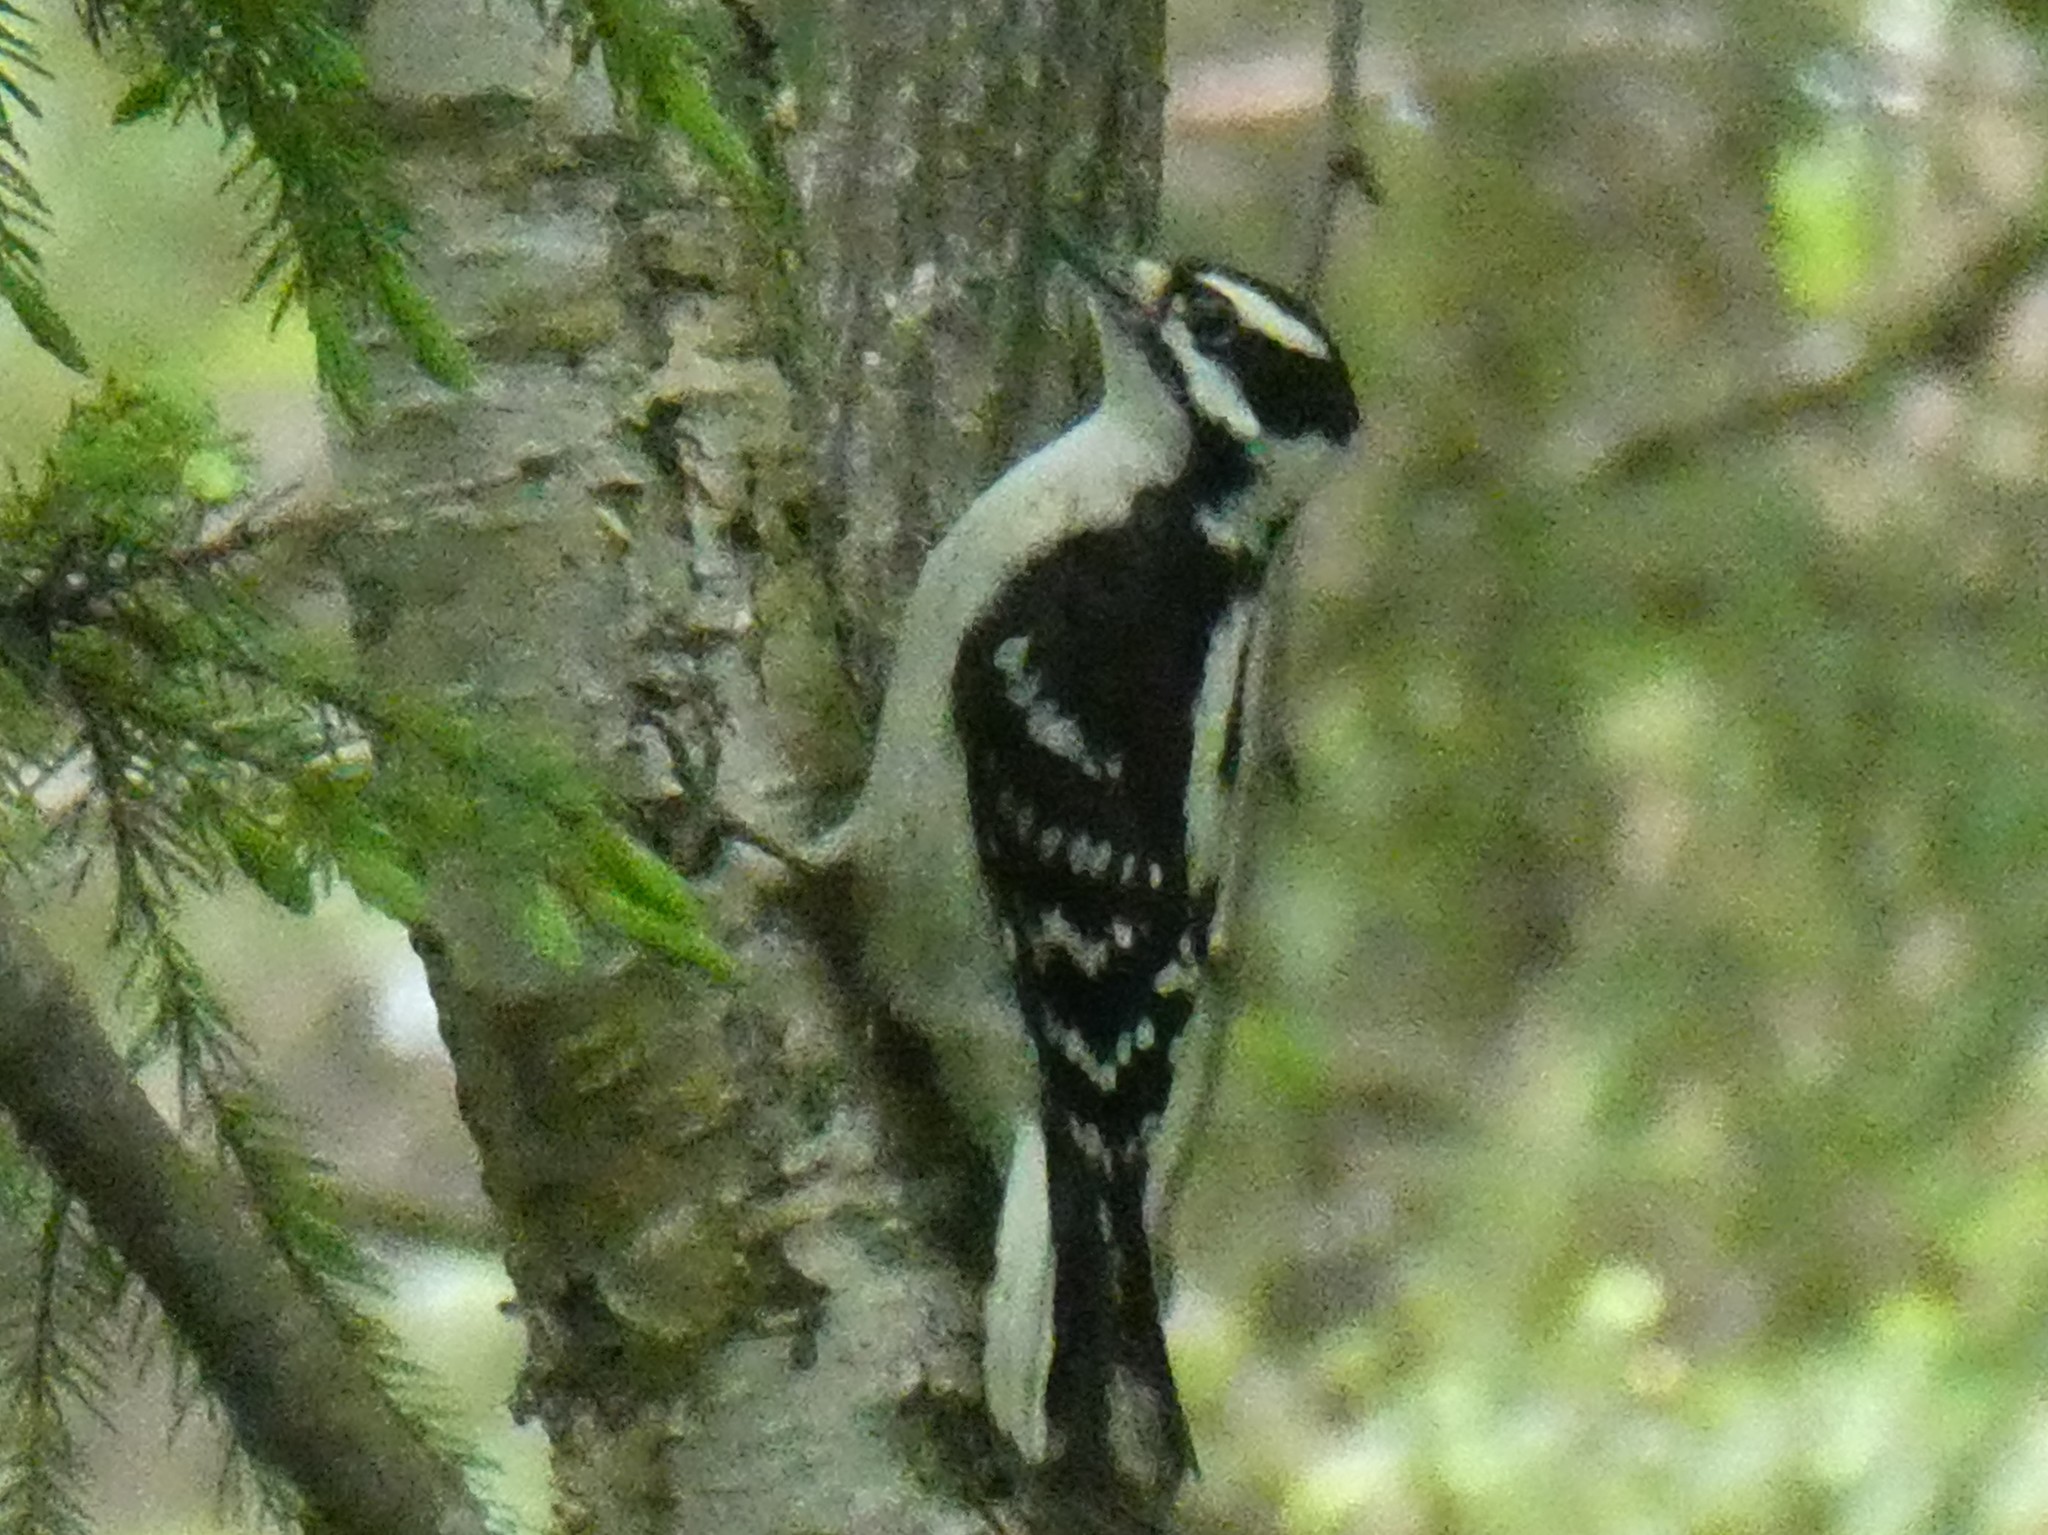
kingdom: Animalia
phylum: Chordata
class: Aves
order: Piciformes
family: Picidae
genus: Dryobates
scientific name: Dryobates pubescens
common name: Downy woodpecker
